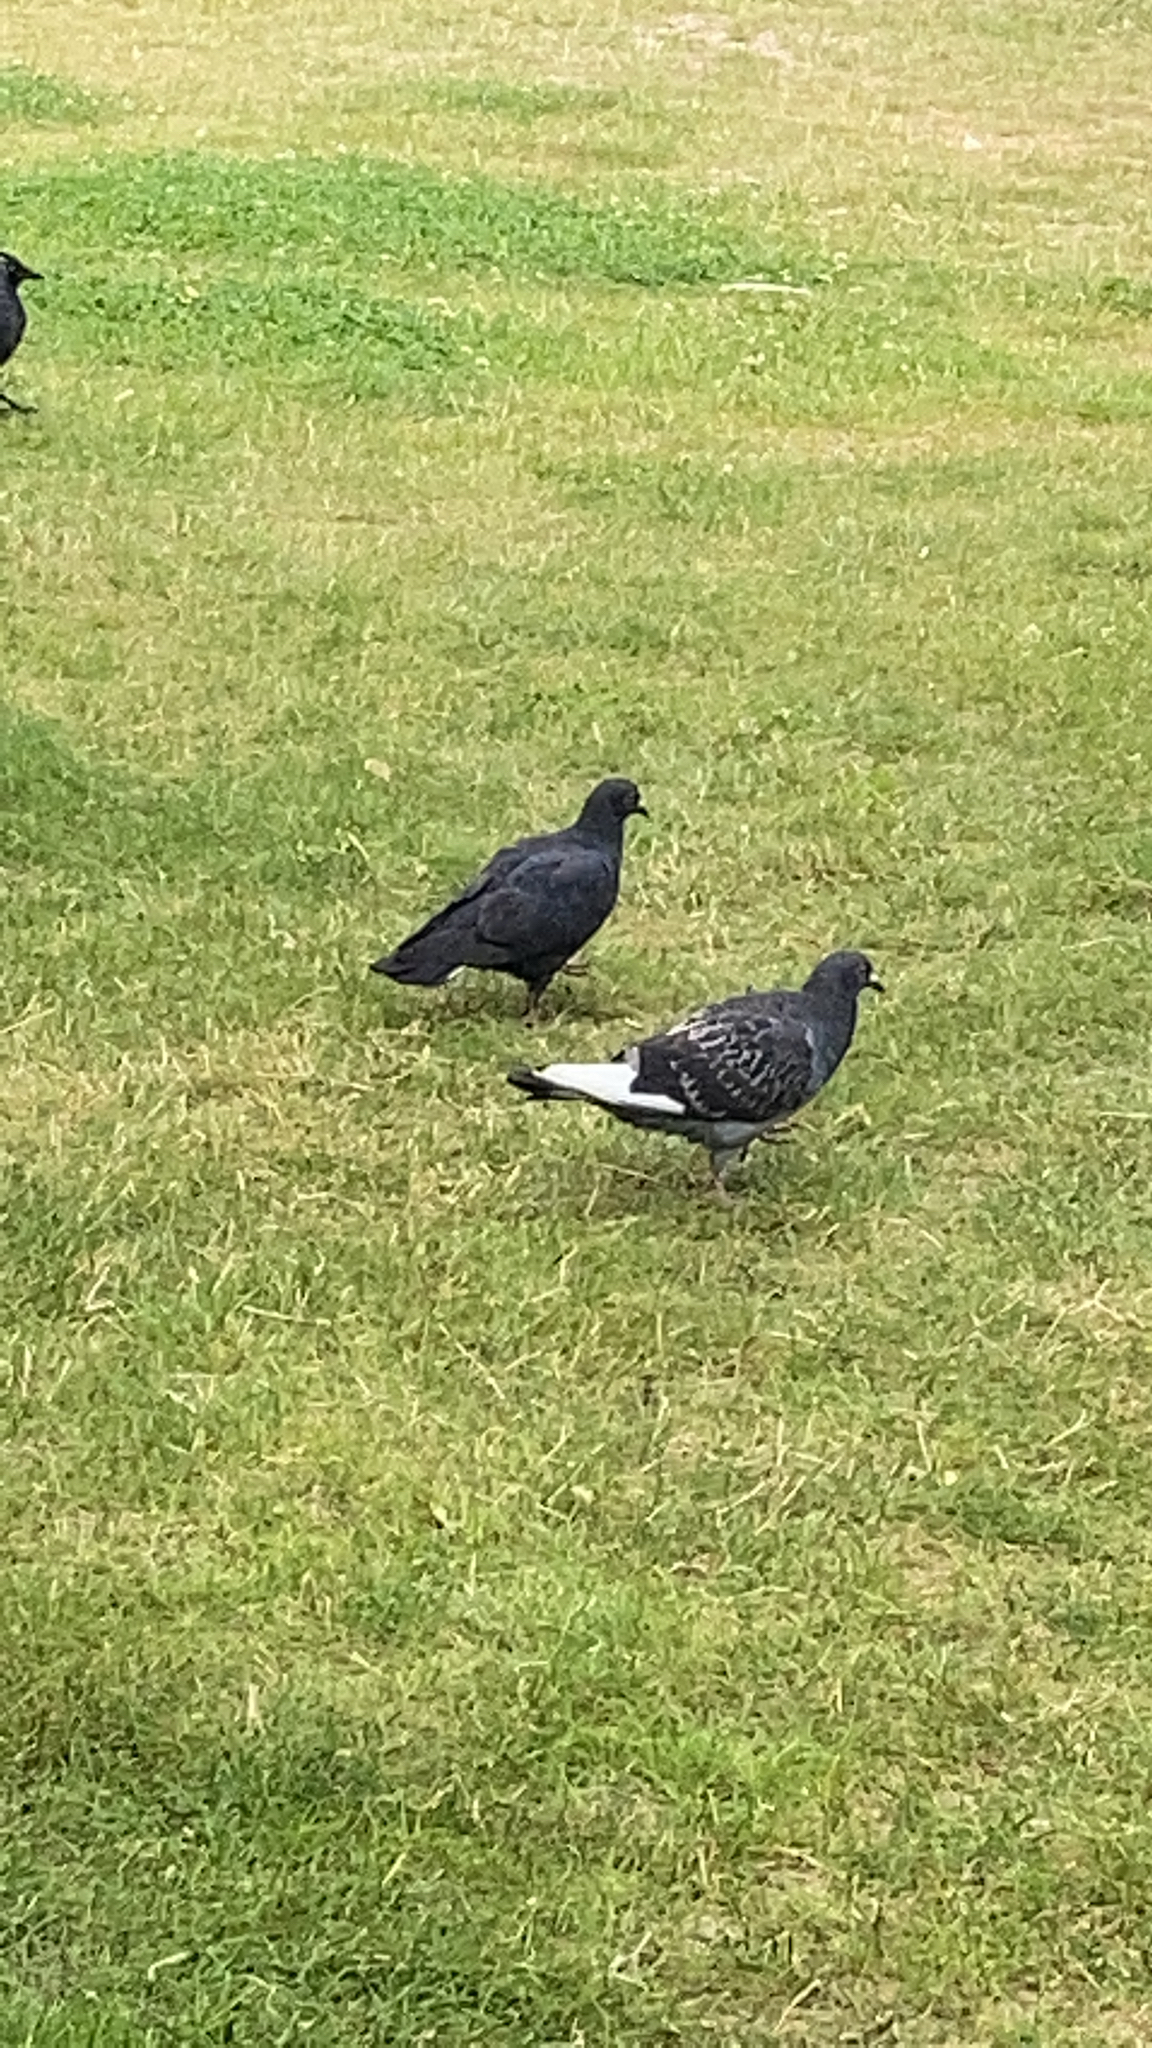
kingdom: Animalia
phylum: Chordata
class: Aves
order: Columbiformes
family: Columbidae
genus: Columba
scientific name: Columba livia
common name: Rock pigeon
